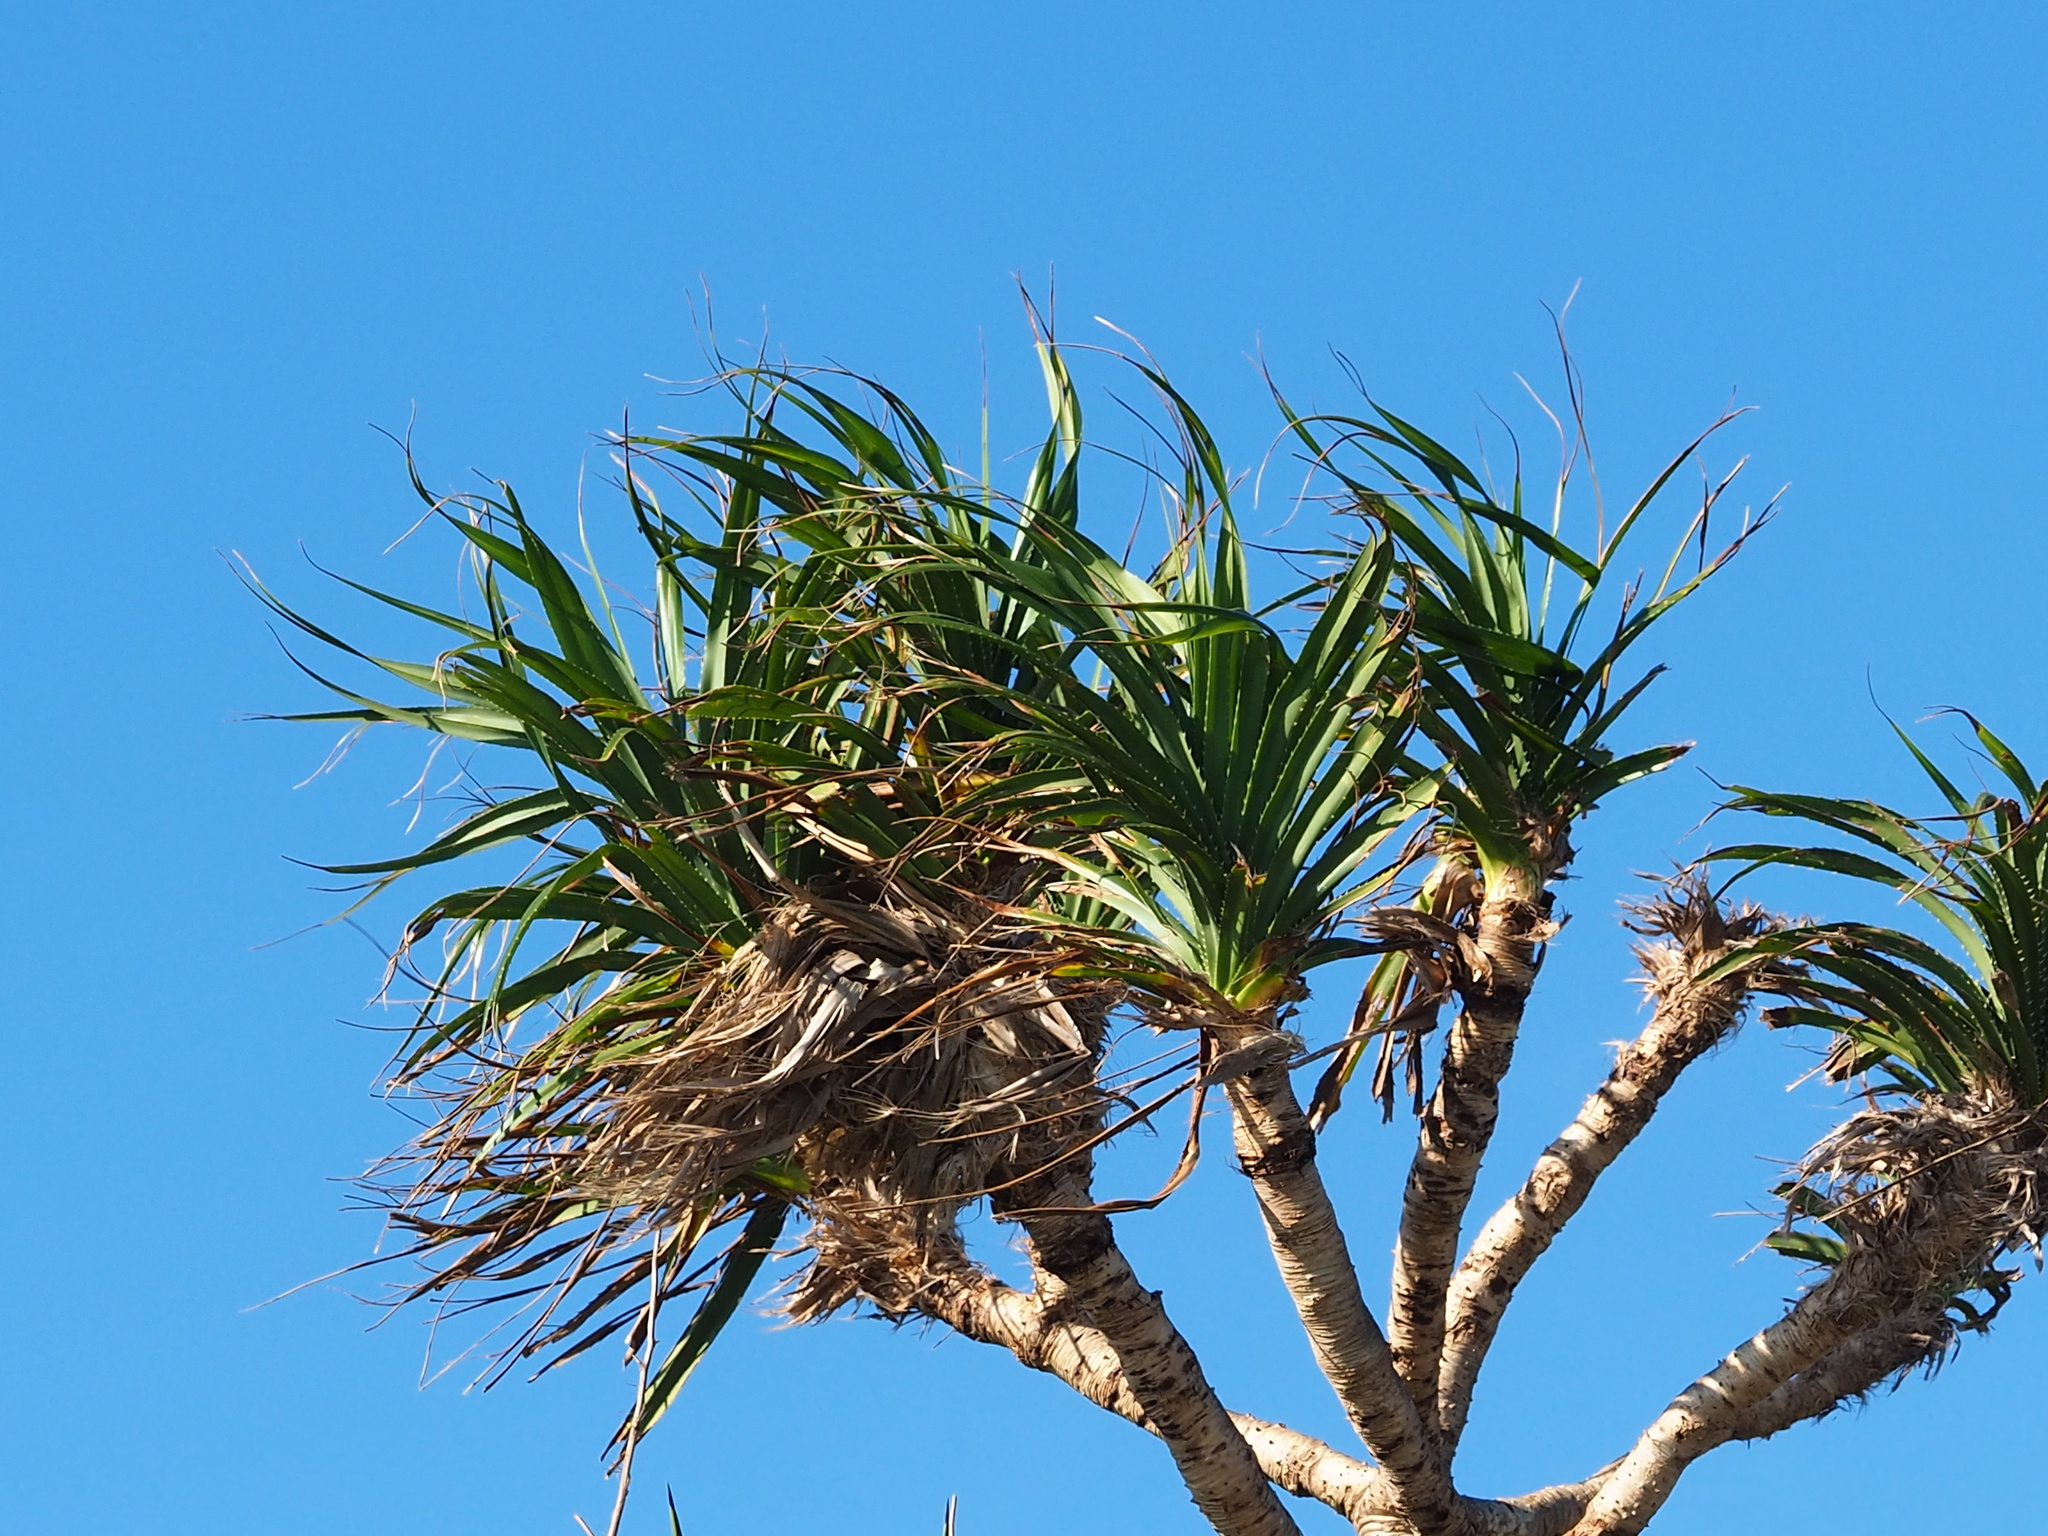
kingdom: Plantae
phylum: Tracheophyta
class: Liliopsida
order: Pandanales
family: Pandanaceae
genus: Pandanus
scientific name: Pandanus odorifer
